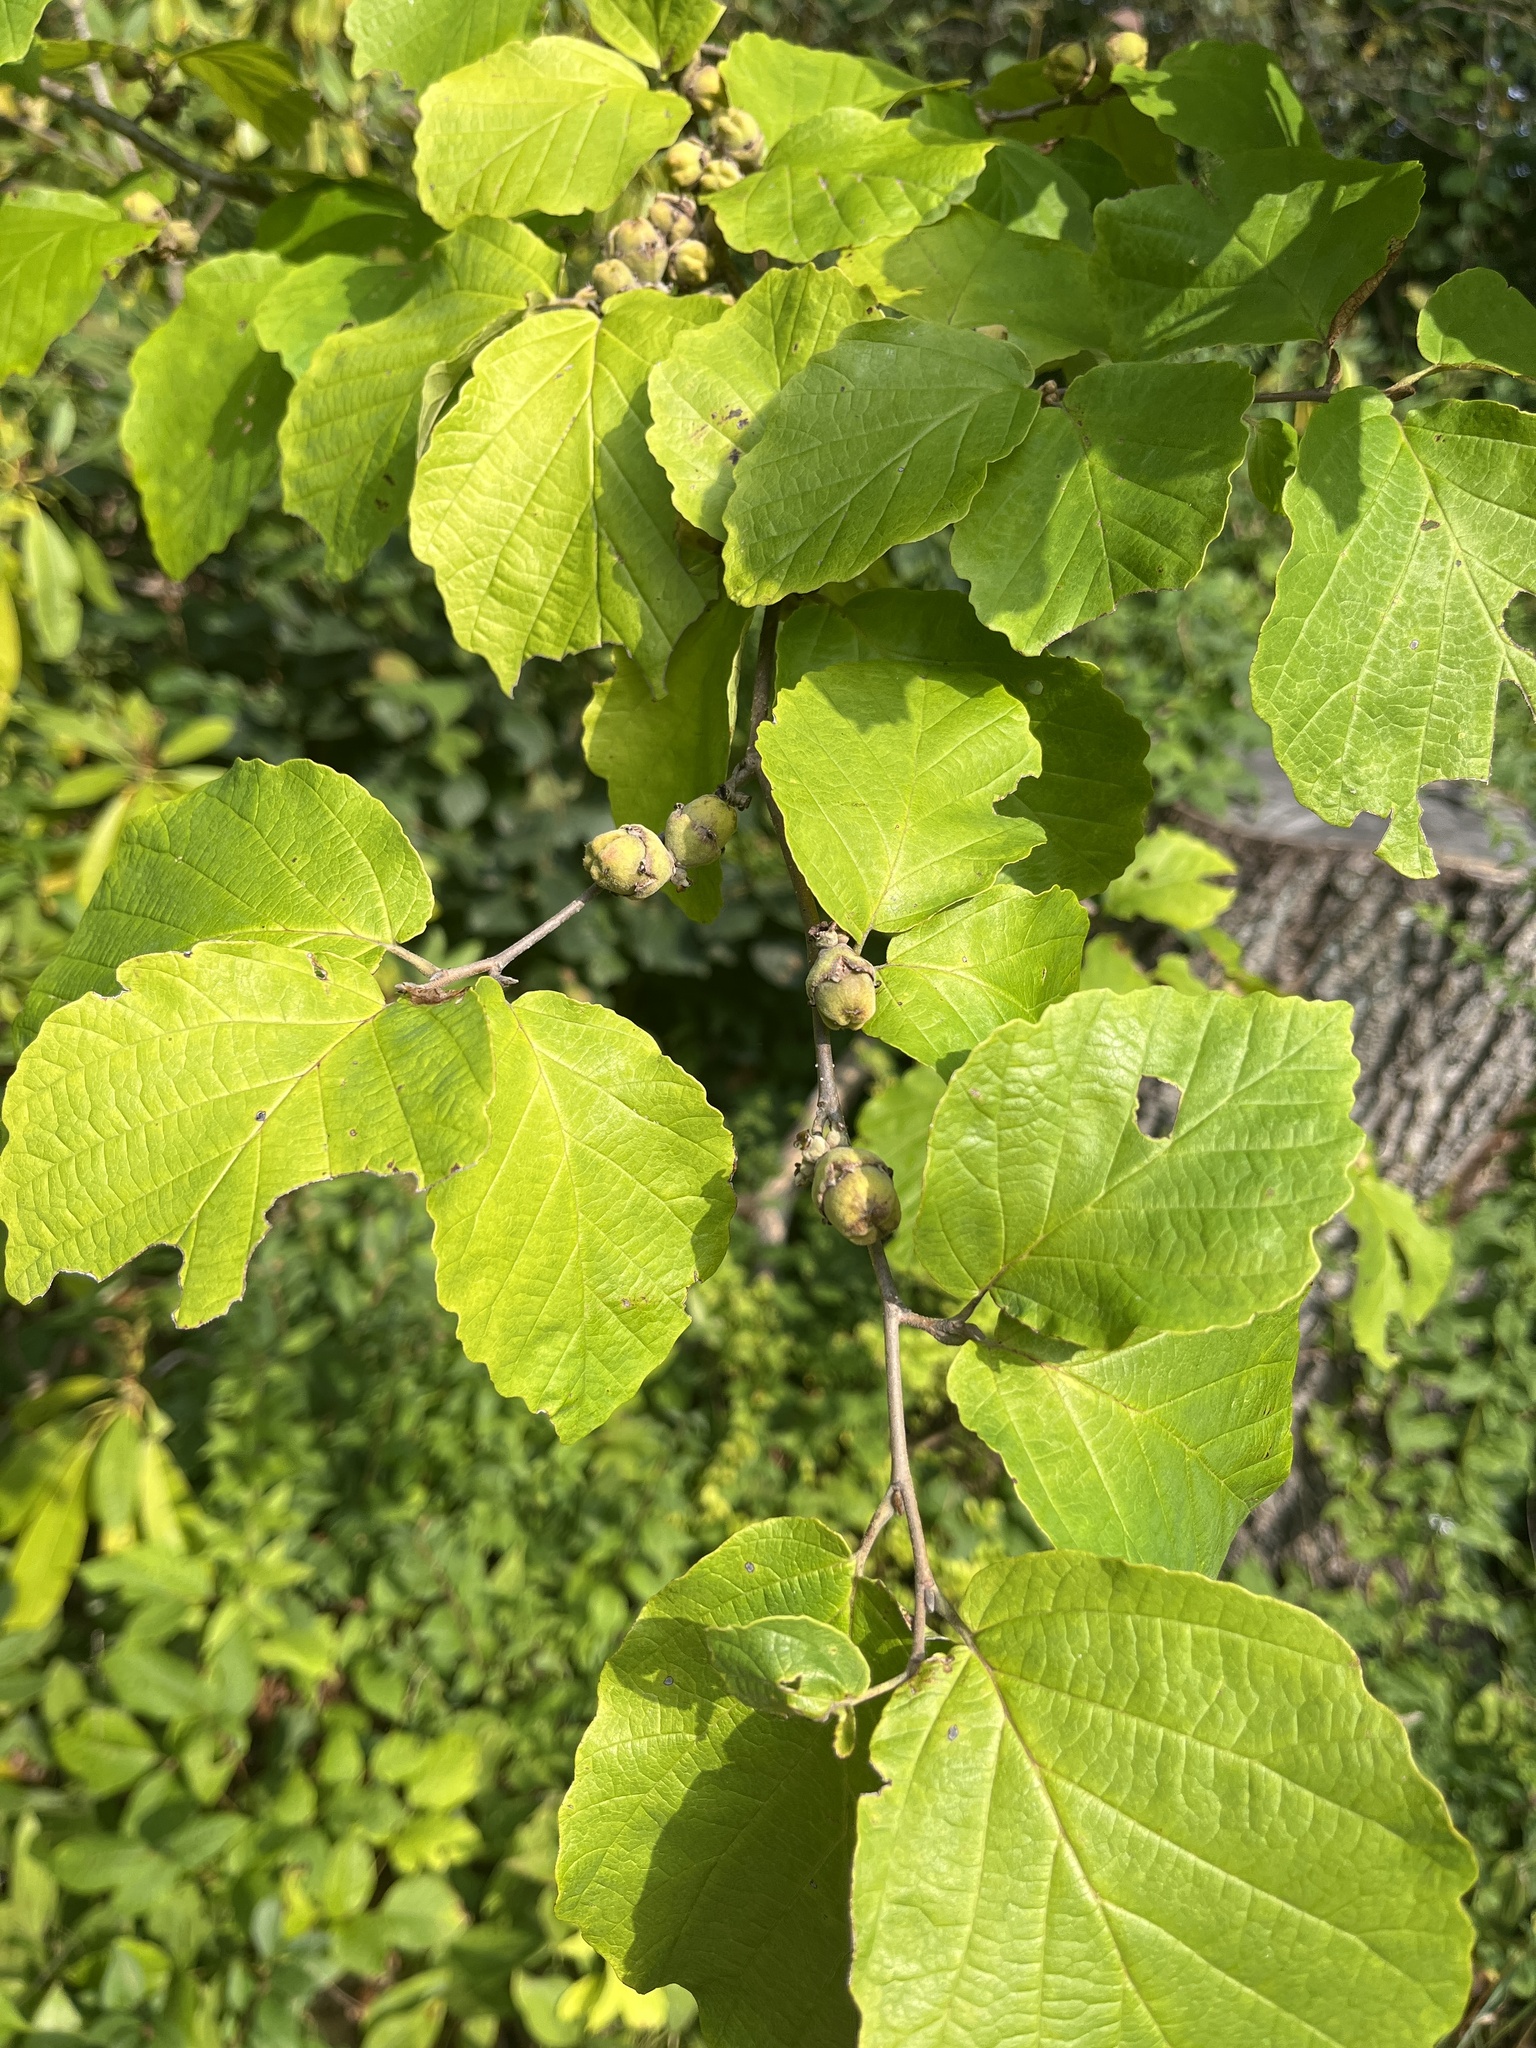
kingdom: Plantae
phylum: Tracheophyta
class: Magnoliopsida
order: Saxifragales
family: Hamamelidaceae
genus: Hamamelis
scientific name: Hamamelis virginiana
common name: Witch-hazel
